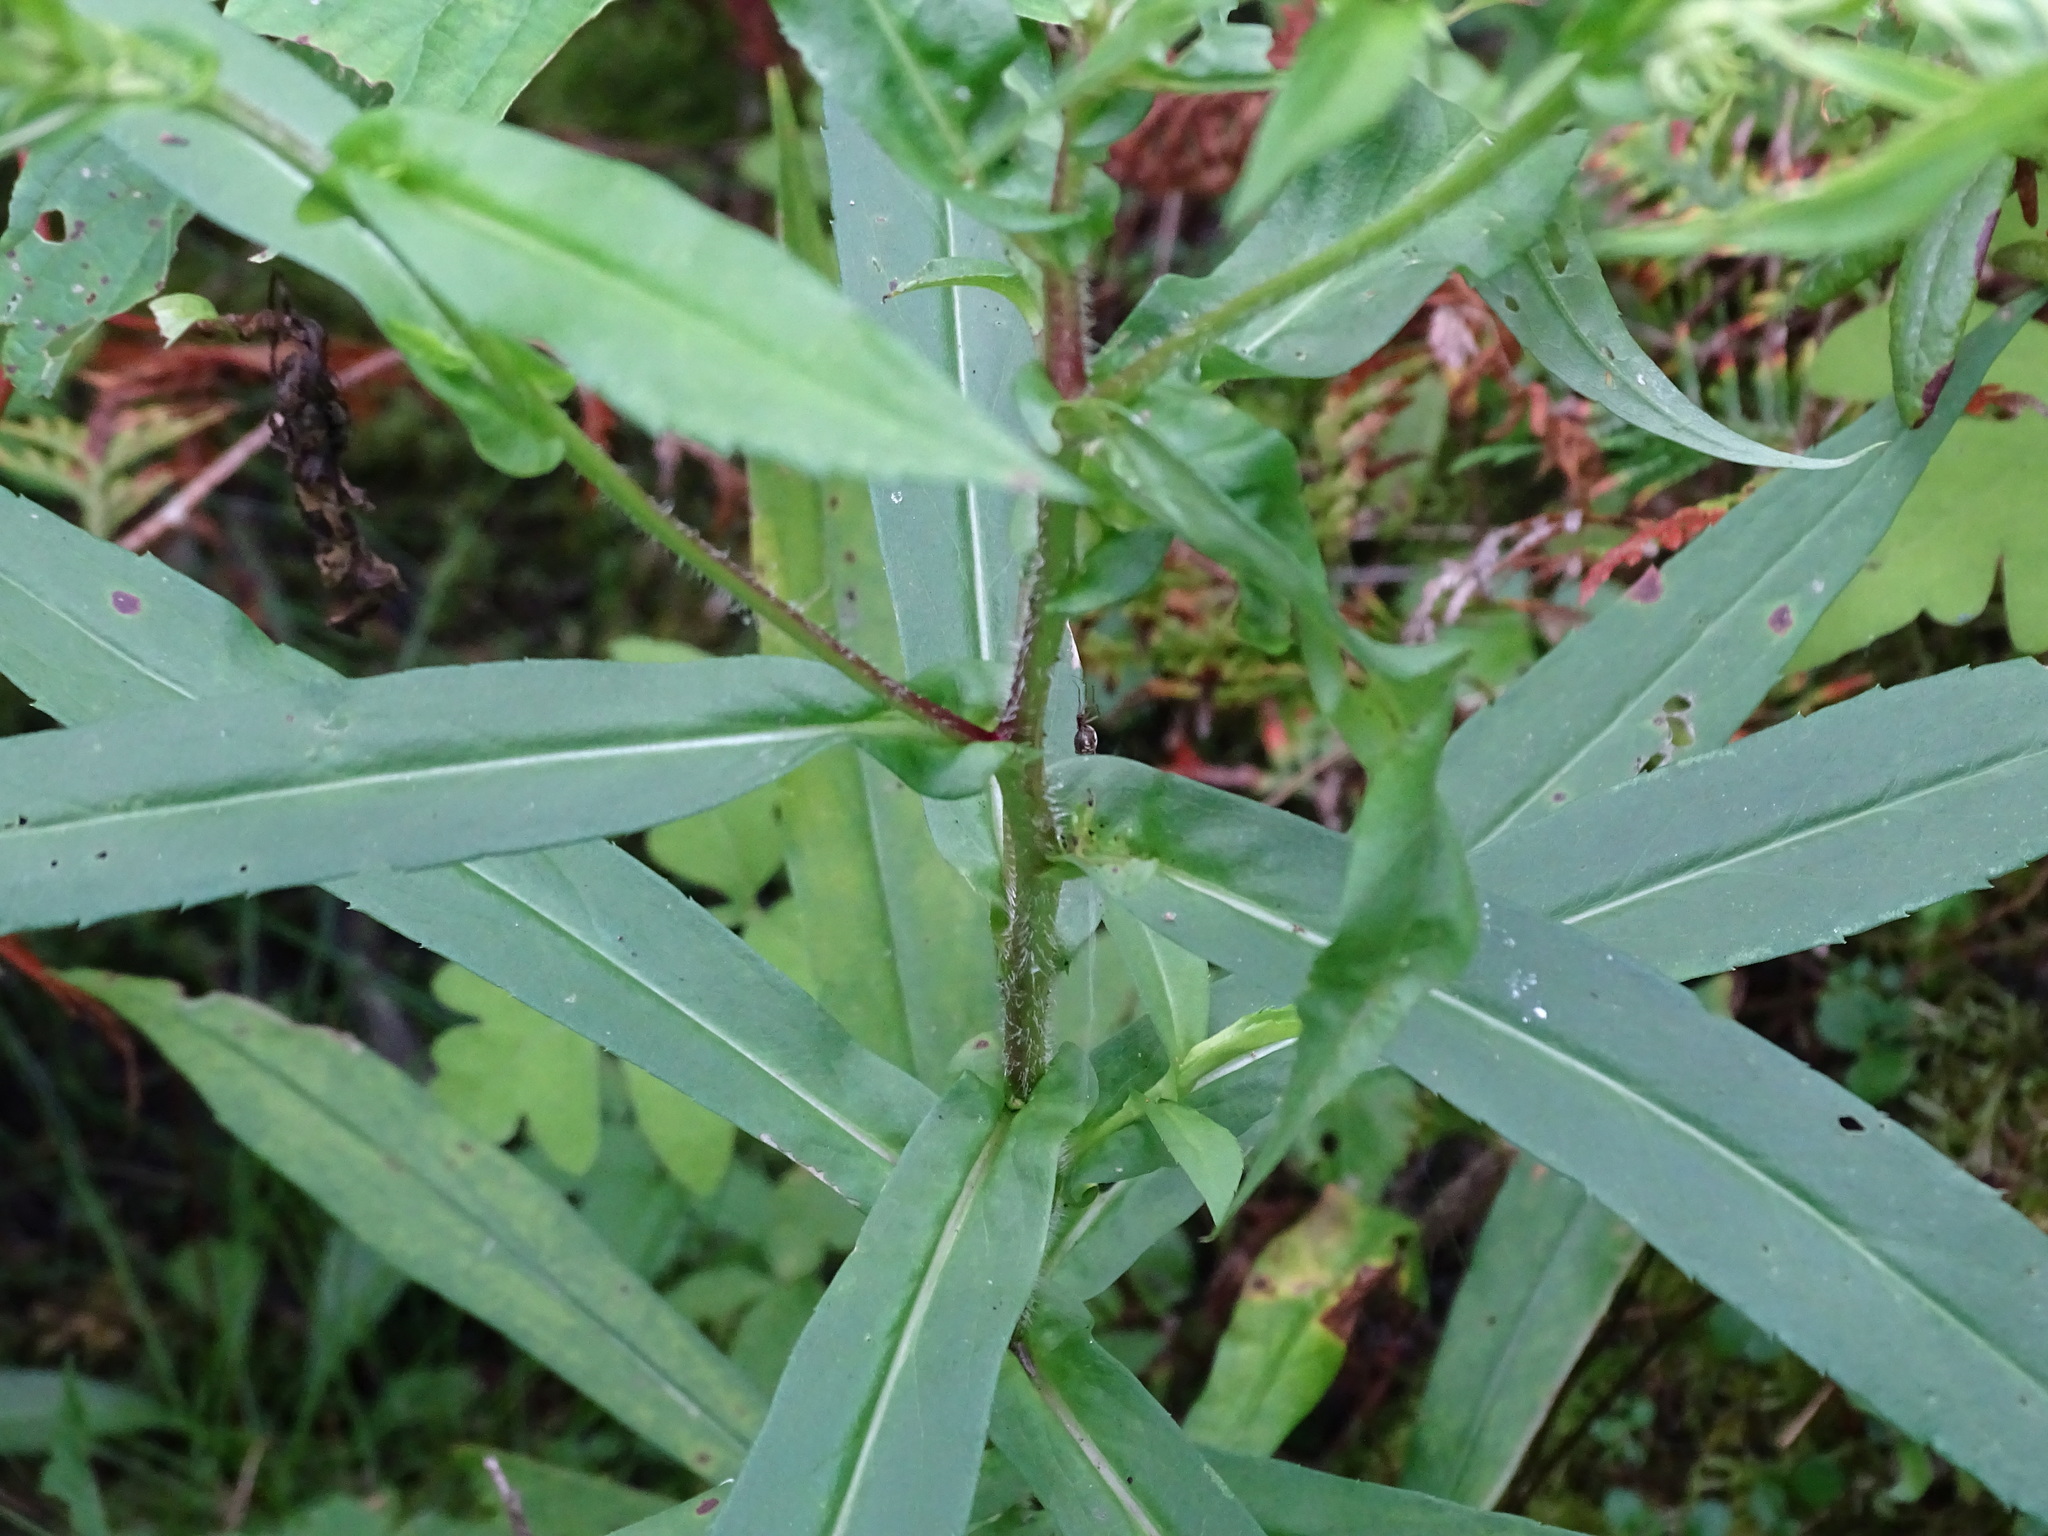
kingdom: Plantae
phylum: Tracheophyta
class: Magnoliopsida
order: Asterales
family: Asteraceae
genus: Symphyotrichum
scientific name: Symphyotrichum puniceum
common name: Bog aster
